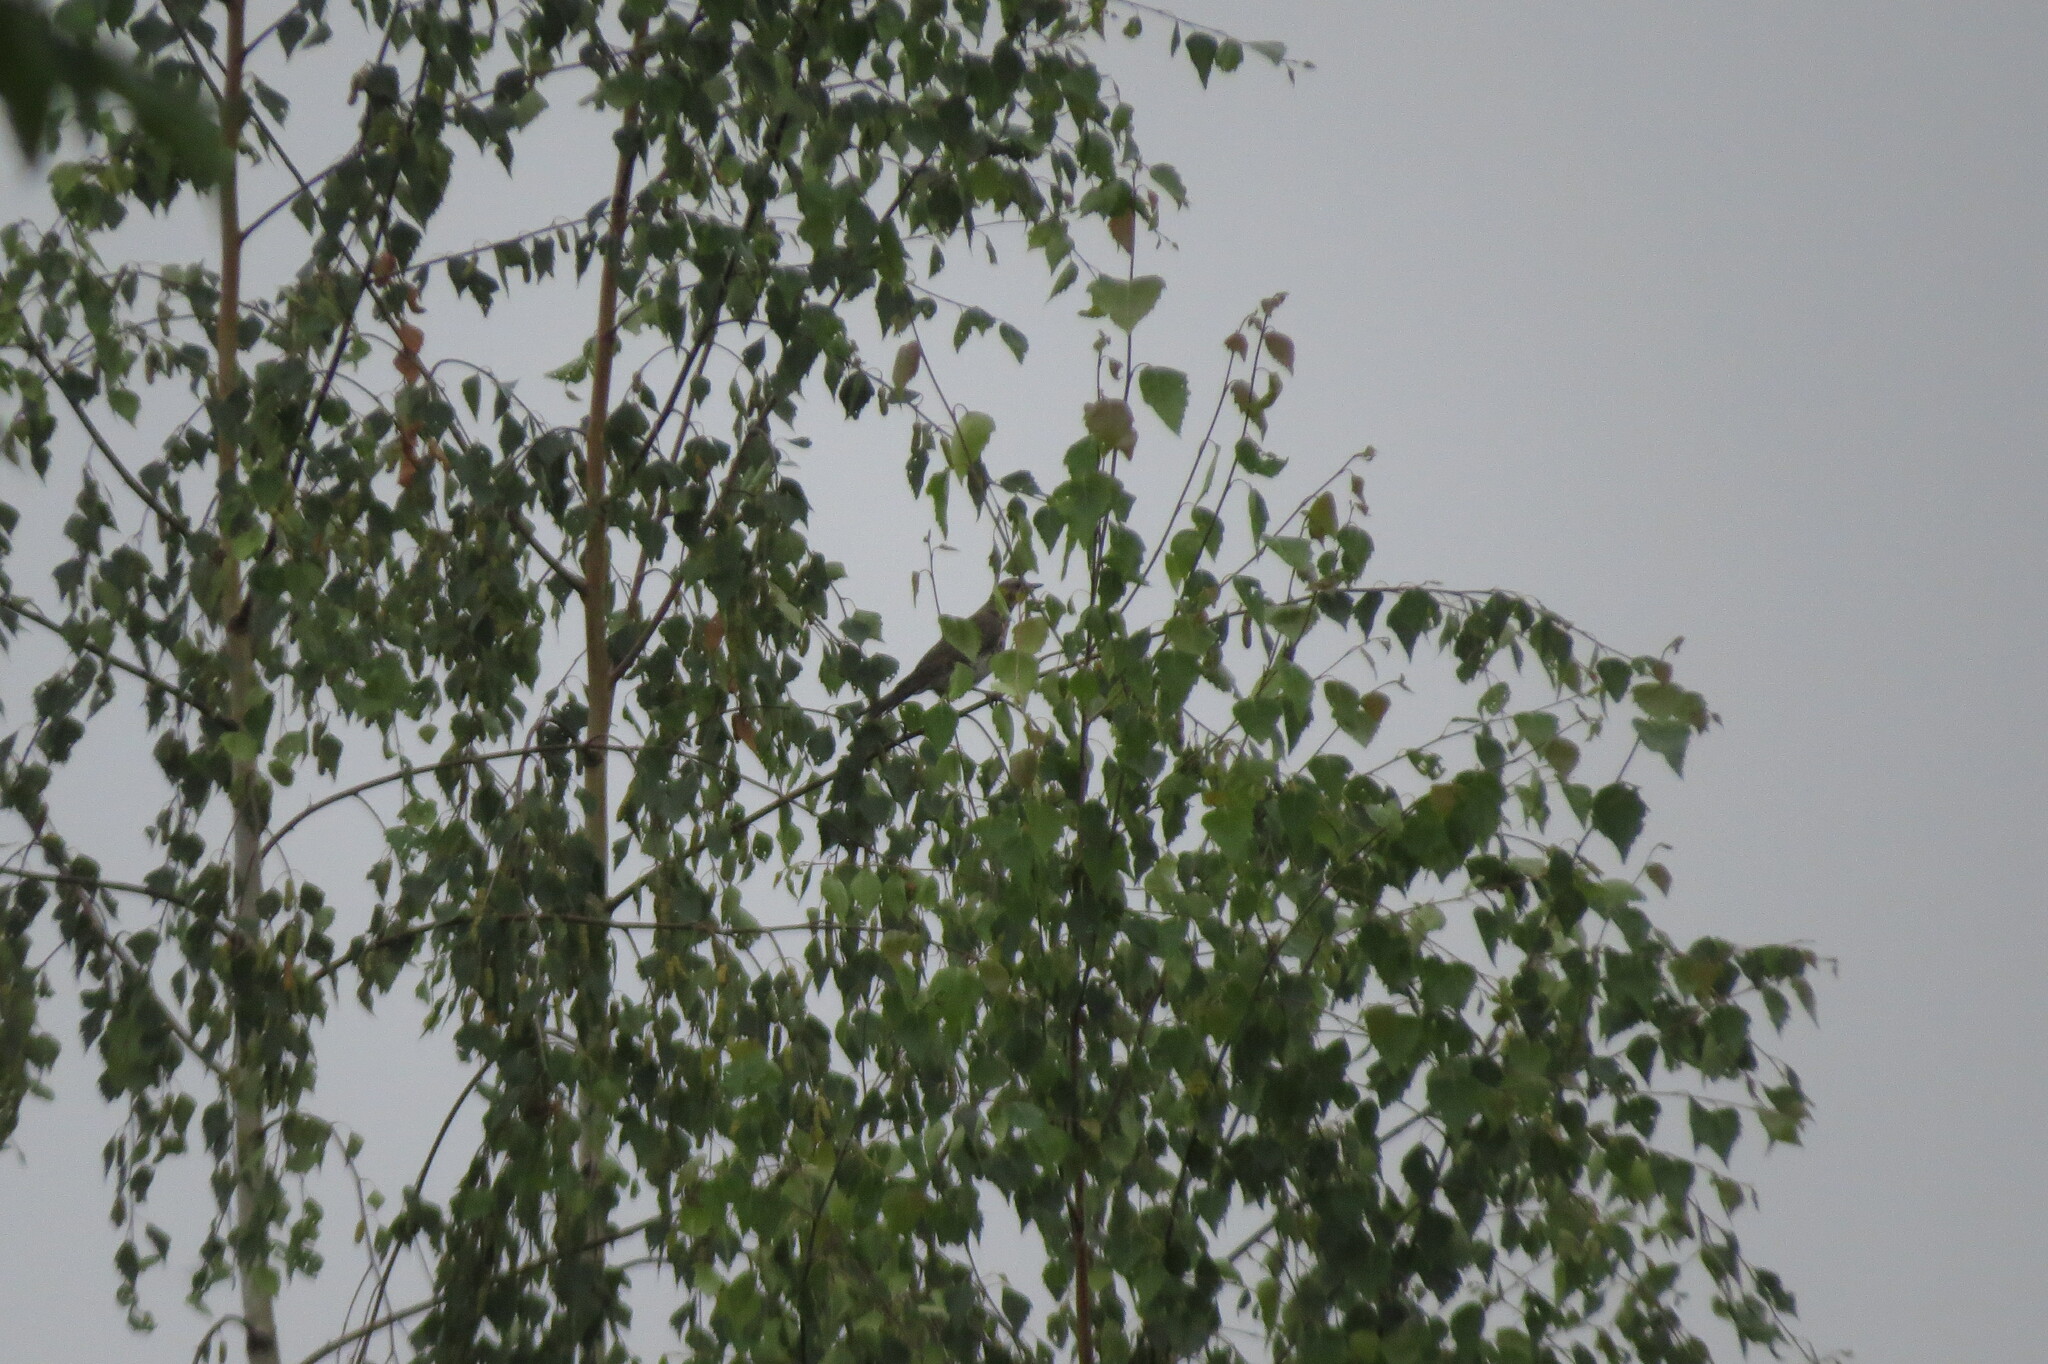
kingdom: Animalia
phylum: Chordata
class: Aves
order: Passeriformes
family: Turdidae
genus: Turdus
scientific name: Turdus pilaris
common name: Fieldfare
